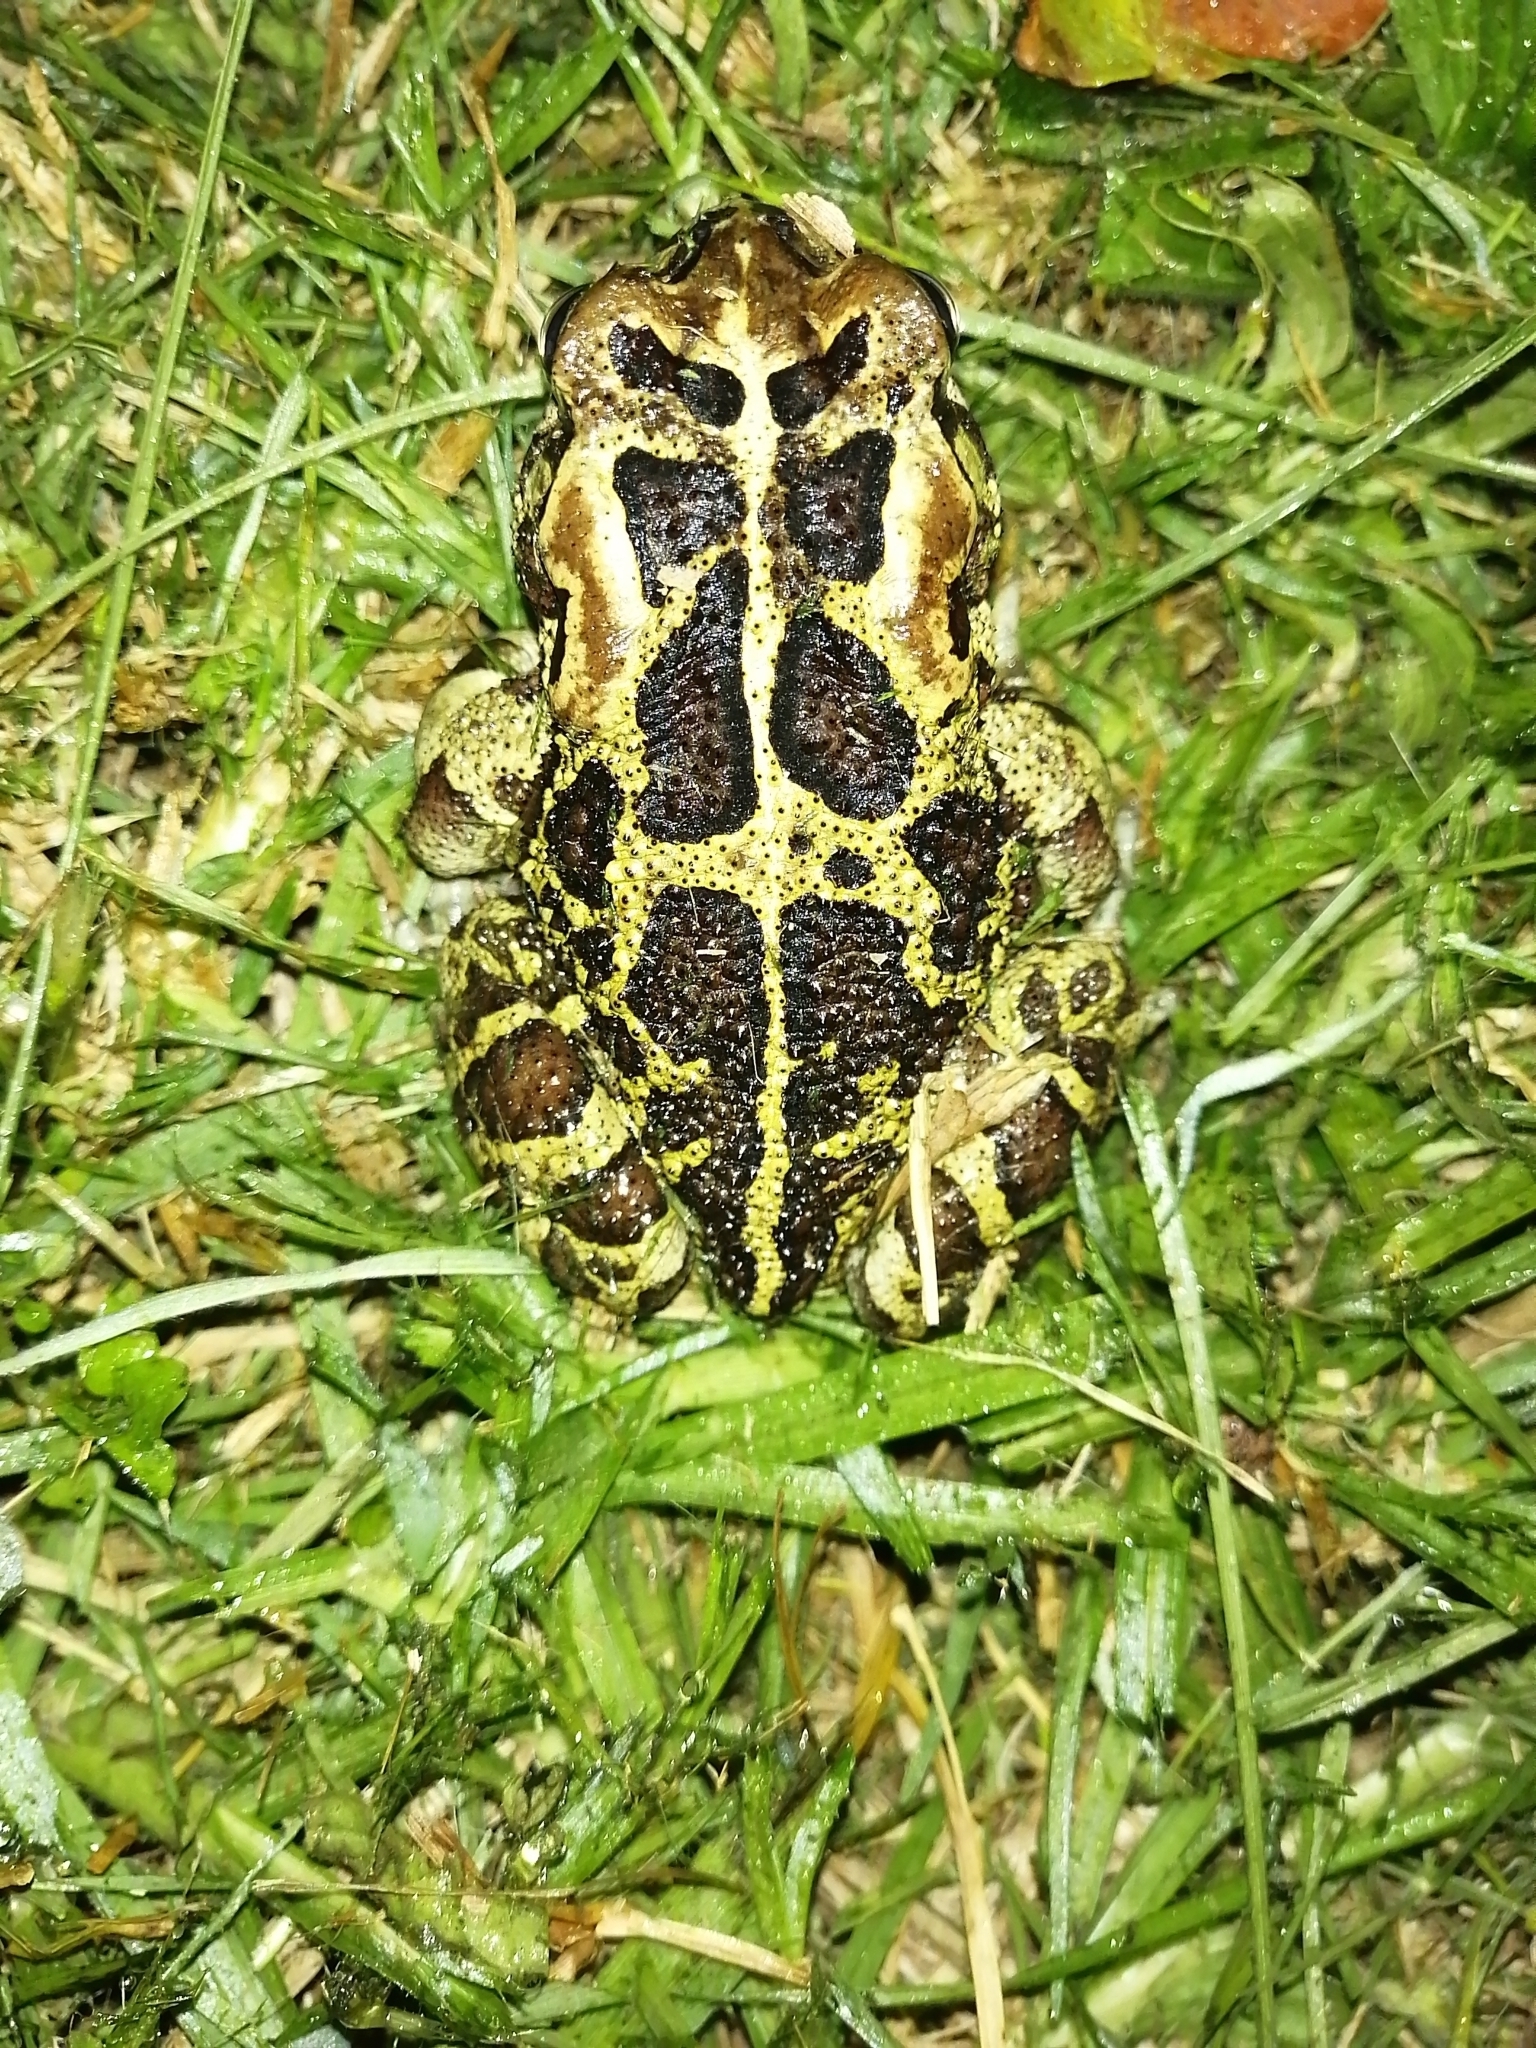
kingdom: Animalia
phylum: Chordata
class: Amphibia
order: Anura
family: Bufonidae
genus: Sclerophrys
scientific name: Sclerophrys pantherina
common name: Panther toad
